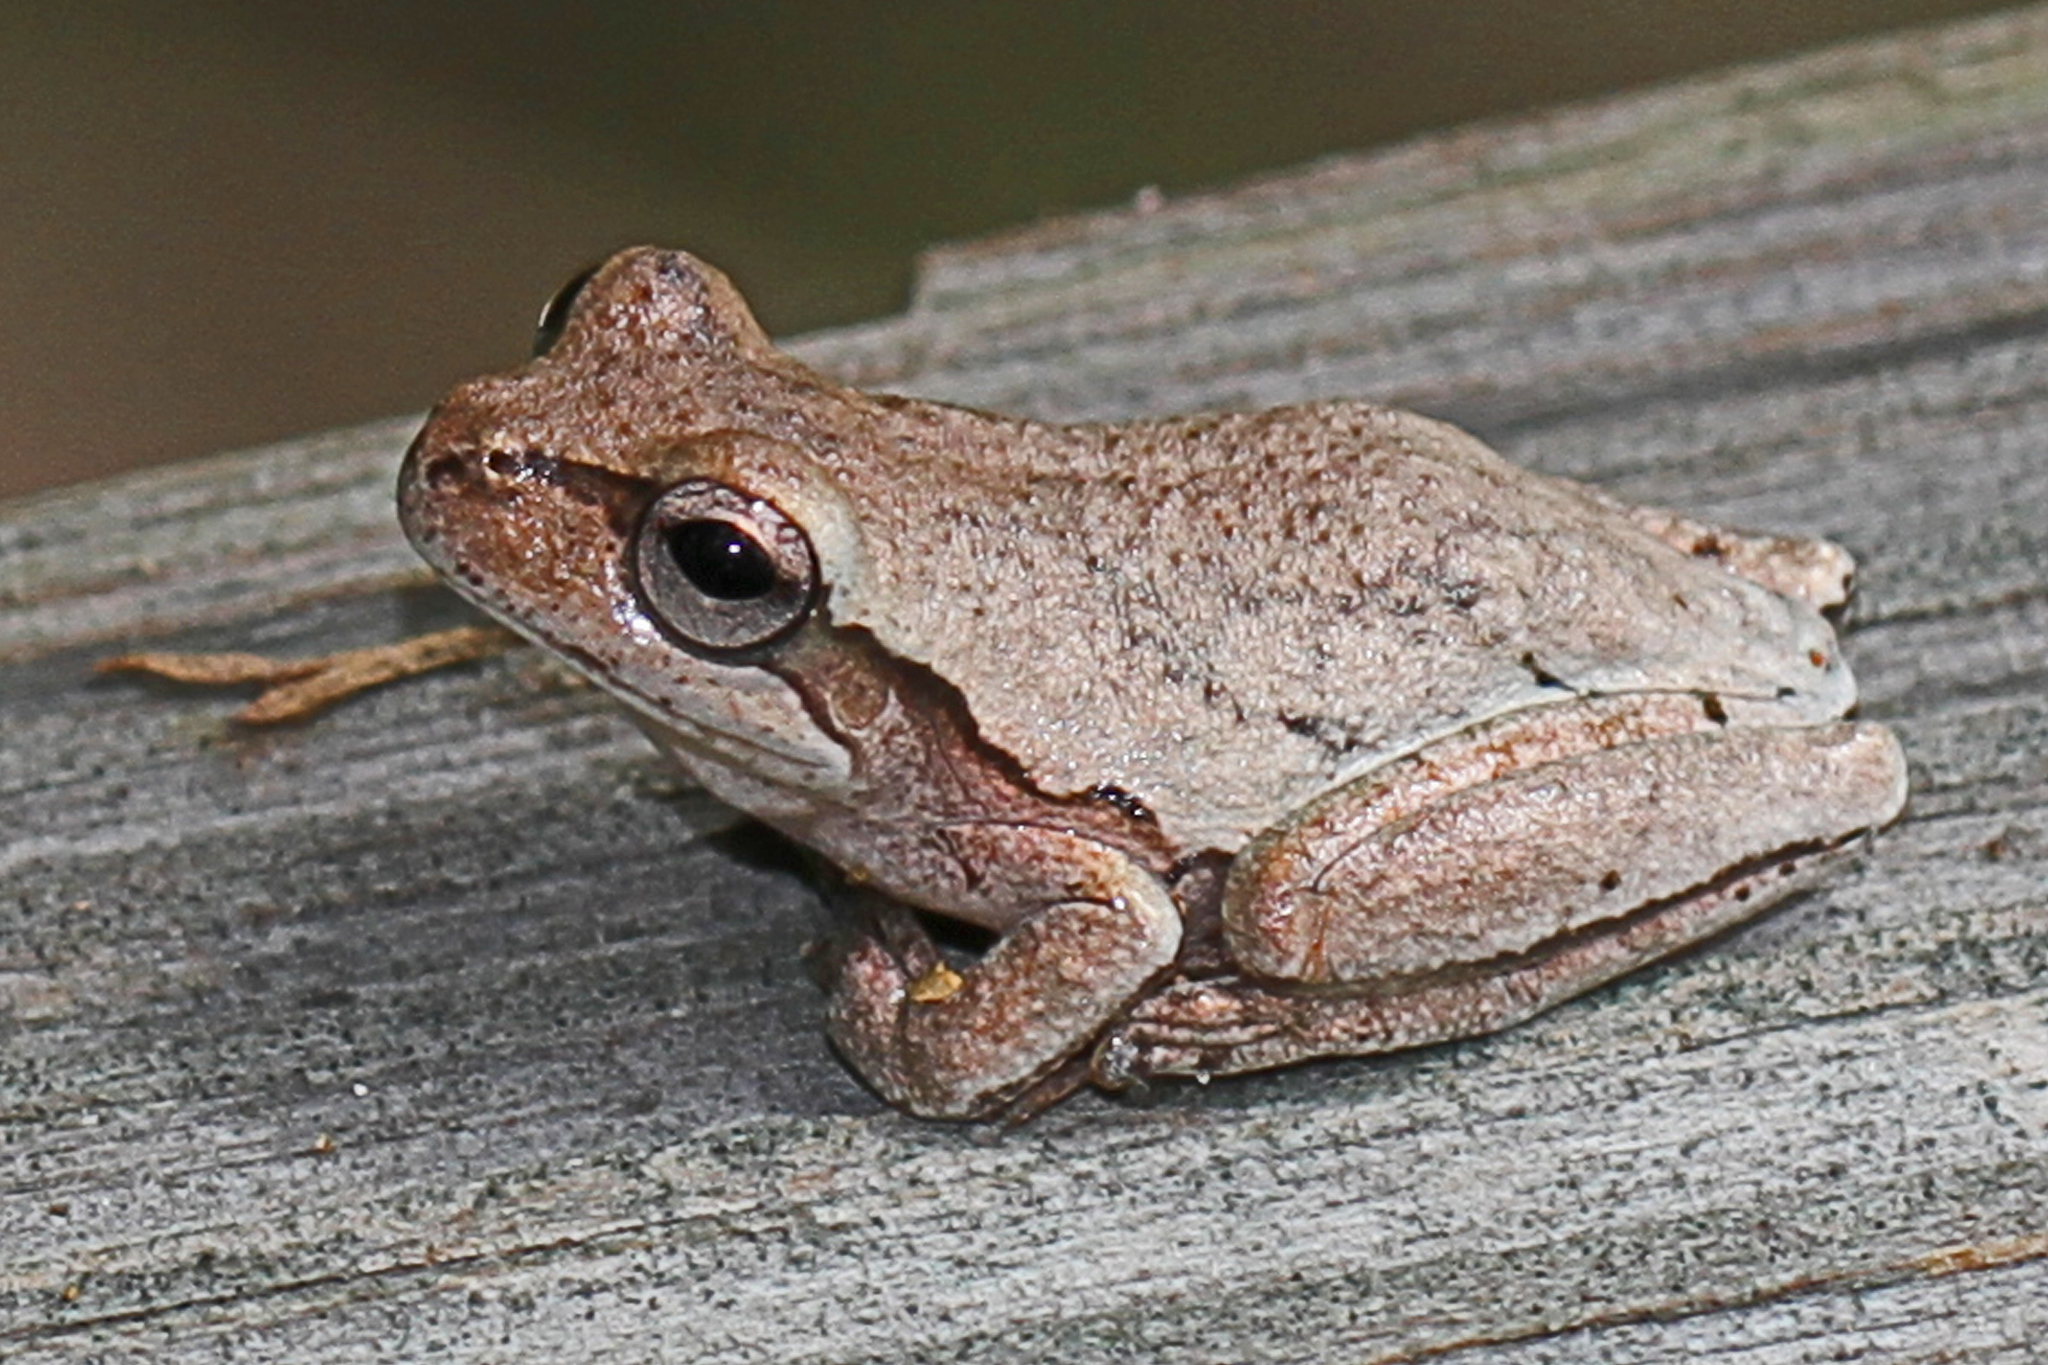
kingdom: Animalia
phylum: Chordata
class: Amphibia
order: Anura
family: Hylidae
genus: Hyla
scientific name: Hyla femoralis
